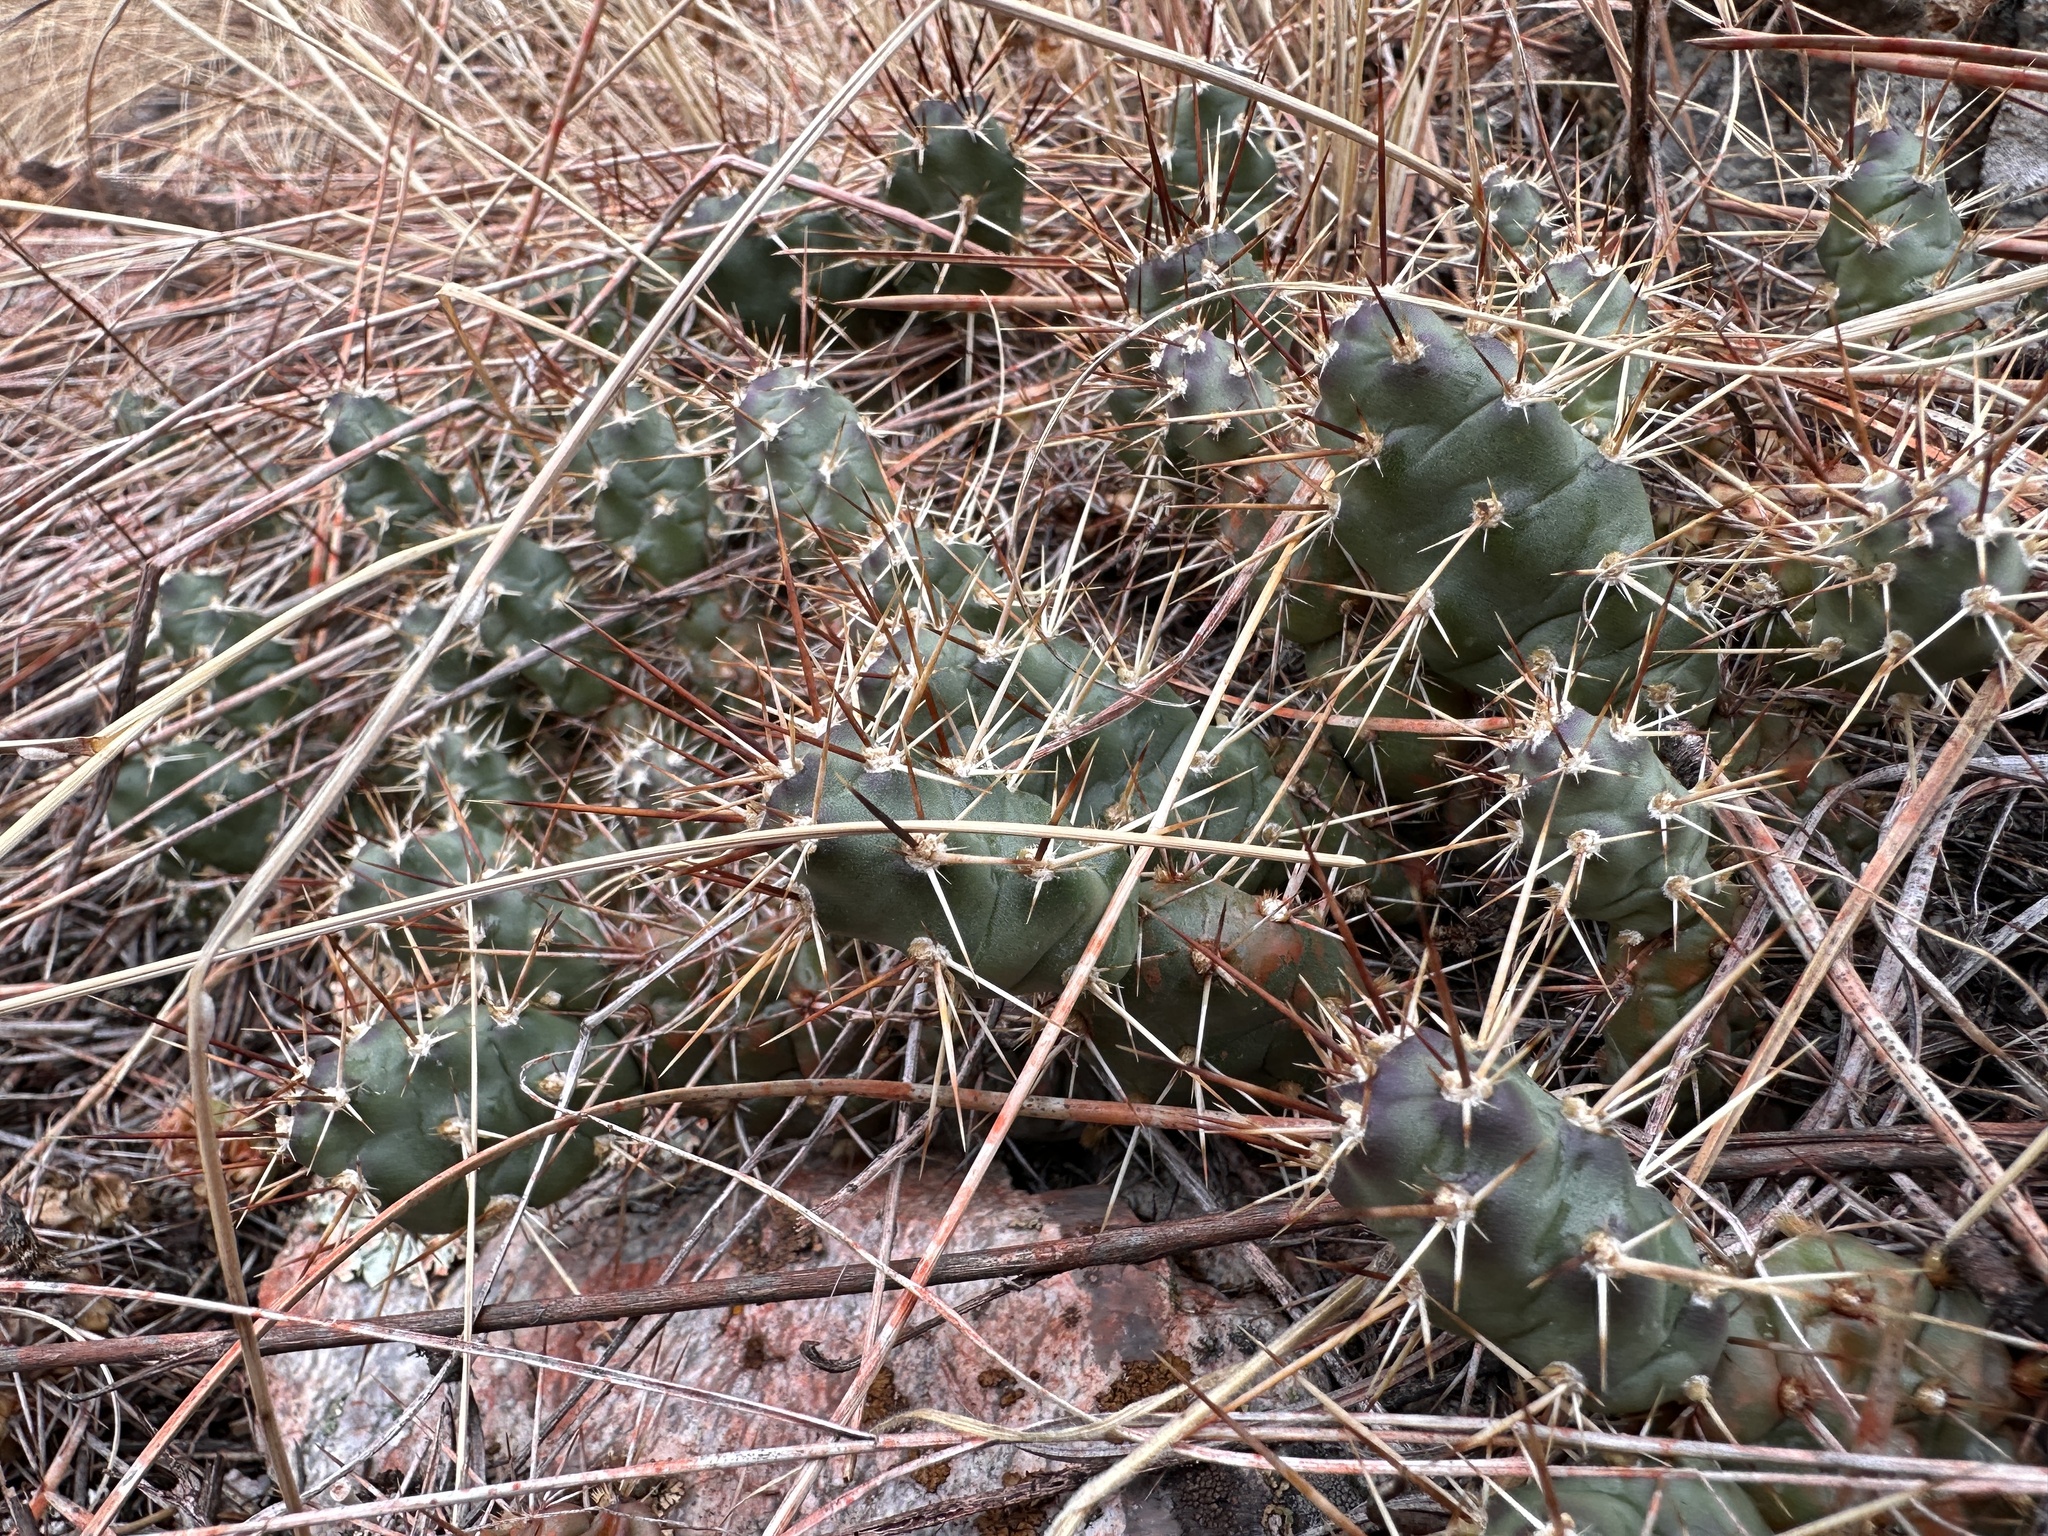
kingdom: Plantae
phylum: Tracheophyta
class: Magnoliopsida
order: Caryophyllales
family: Cactaceae
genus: Opuntia
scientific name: Opuntia fragilis
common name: Brittle cactus
